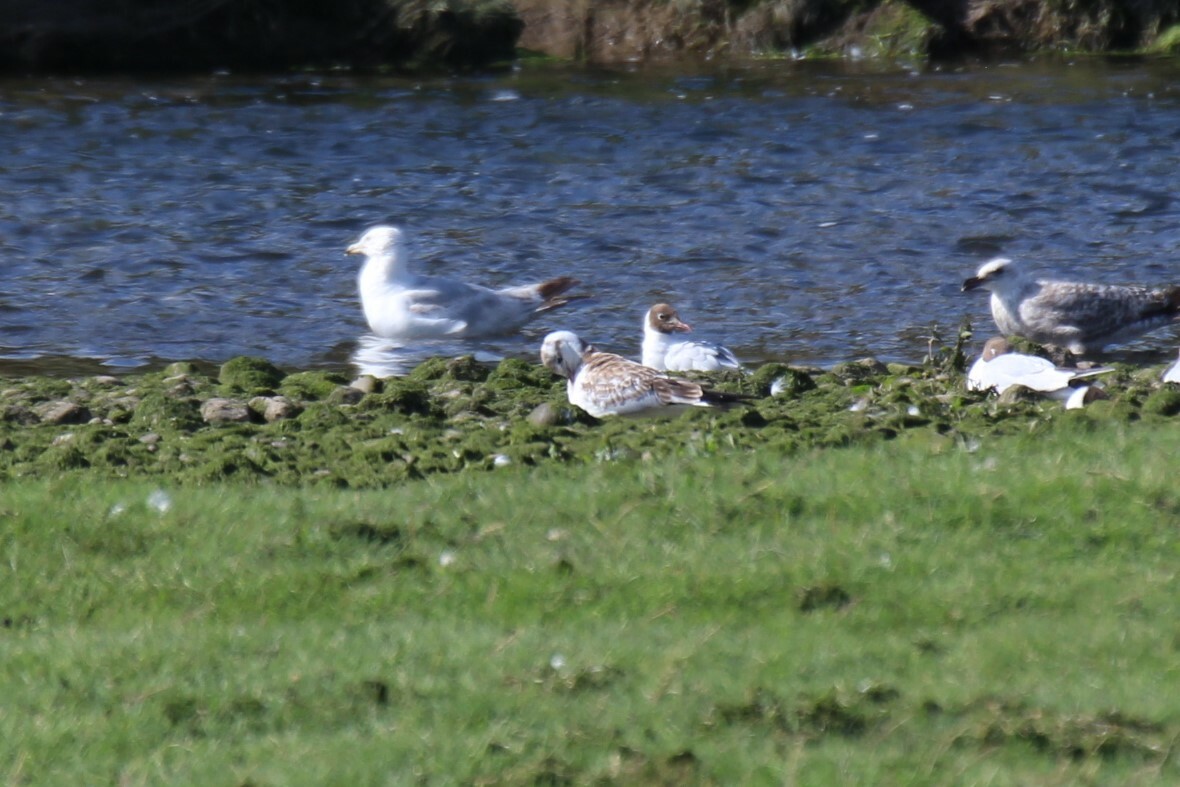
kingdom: Animalia
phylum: Chordata
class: Aves
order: Charadriiformes
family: Laridae
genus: Chroicocephalus
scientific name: Chroicocephalus ridibundus
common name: Black-headed gull
